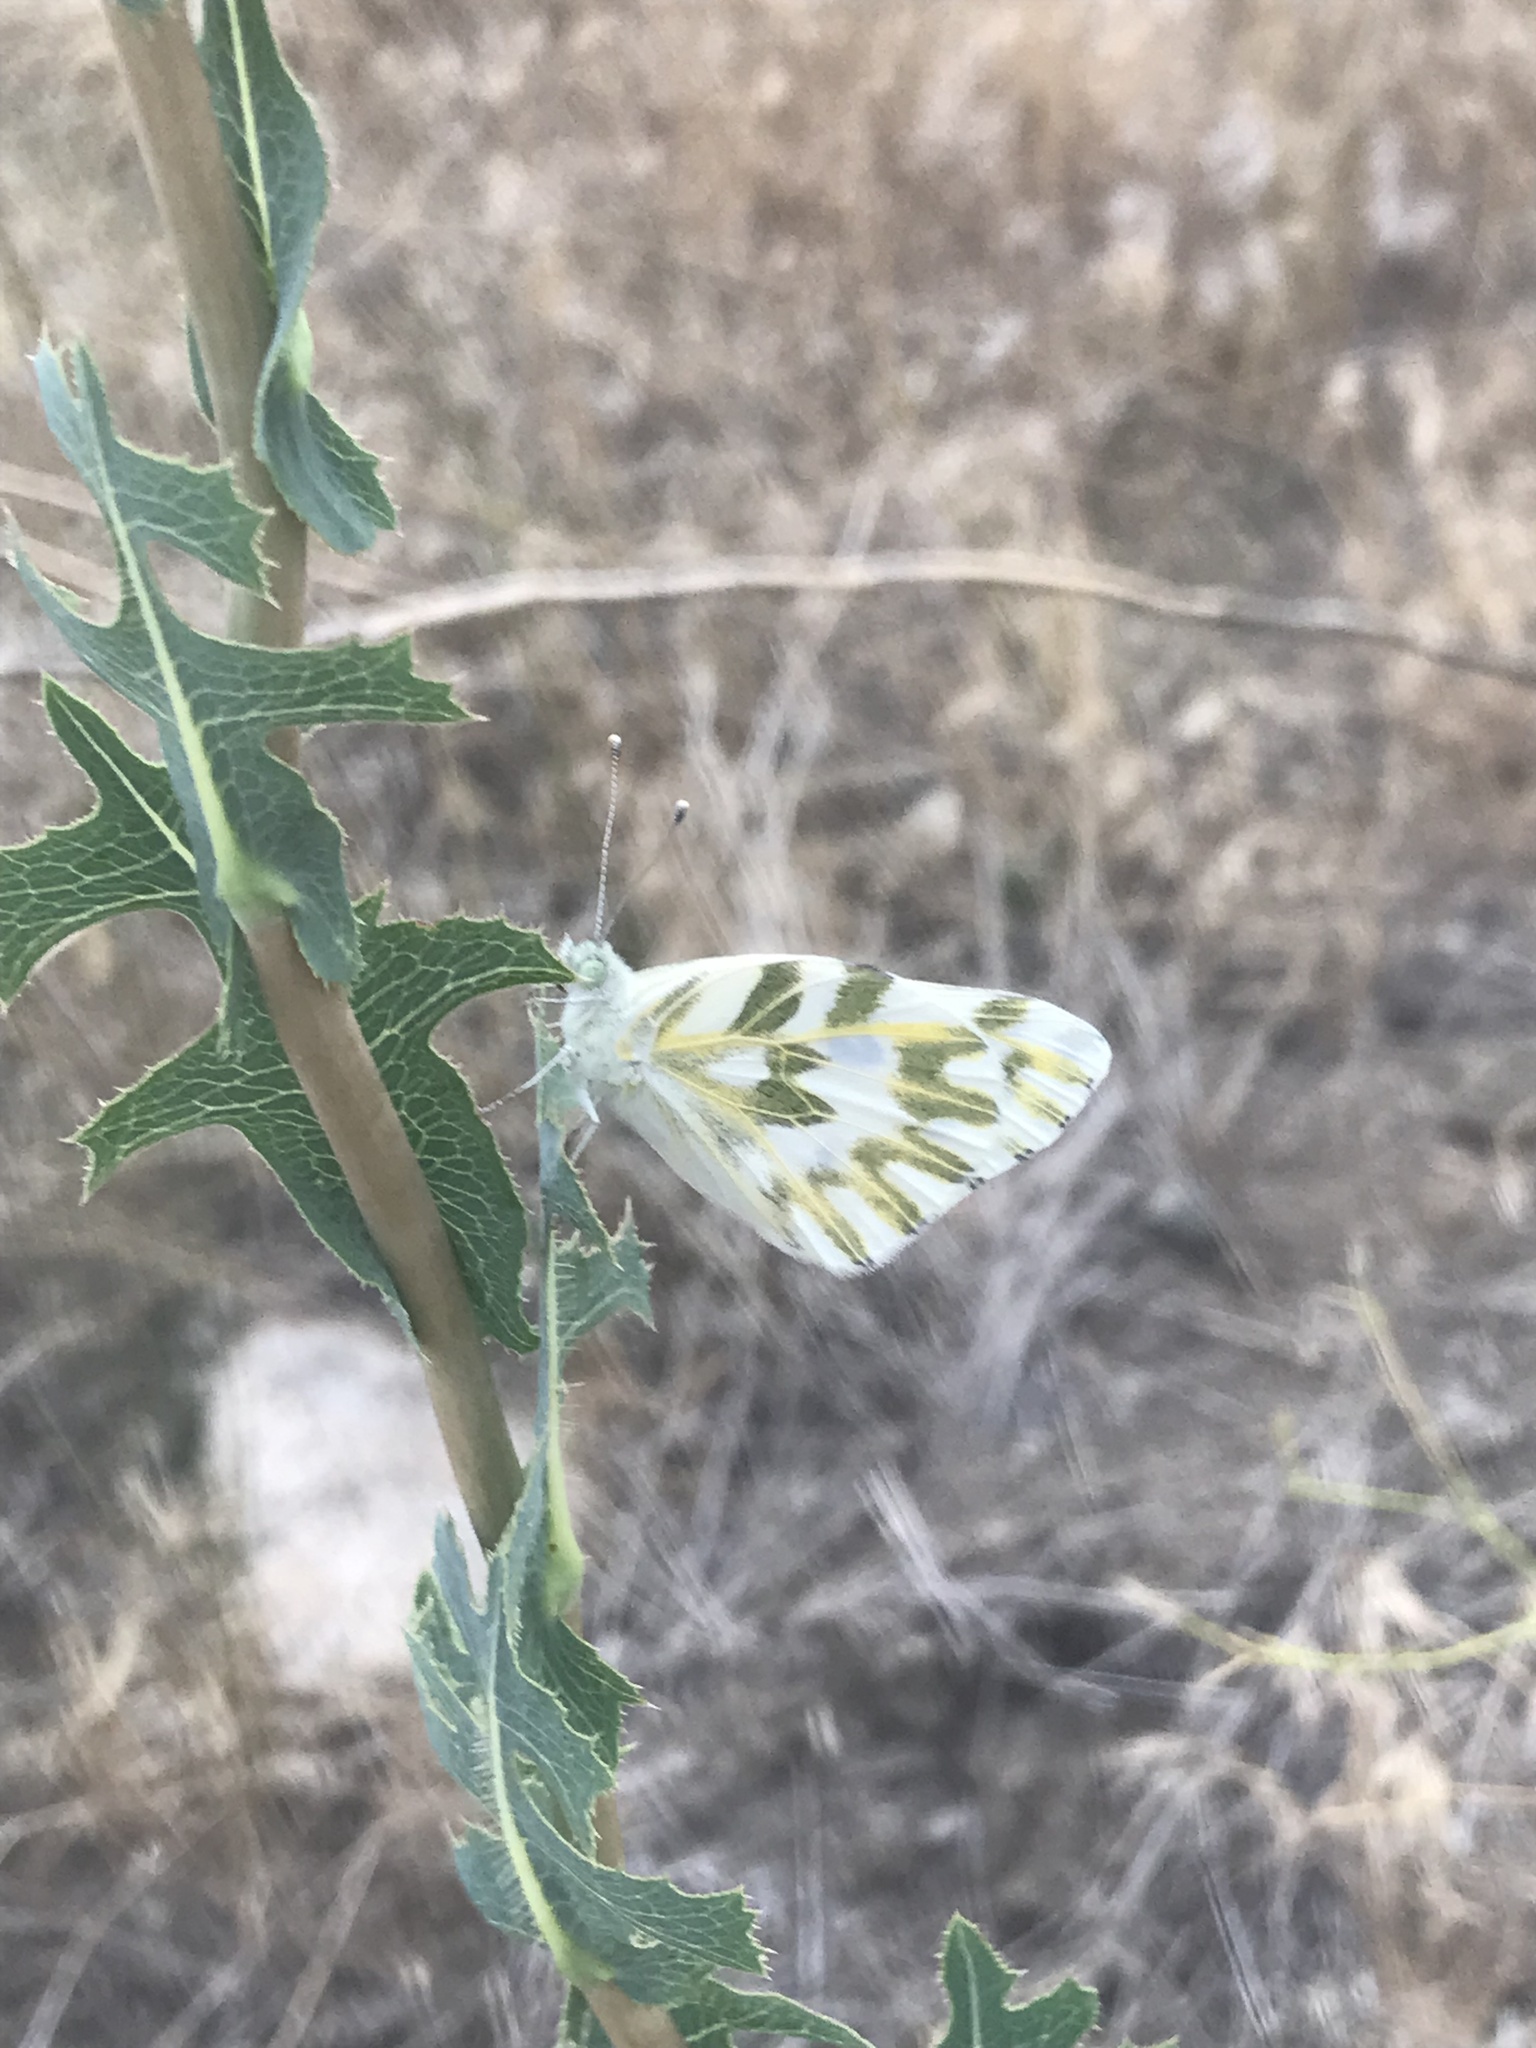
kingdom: Animalia
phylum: Arthropoda
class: Insecta
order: Lepidoptera
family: Pieridae
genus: Pontia
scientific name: Pontia beckerii
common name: Becker's white
